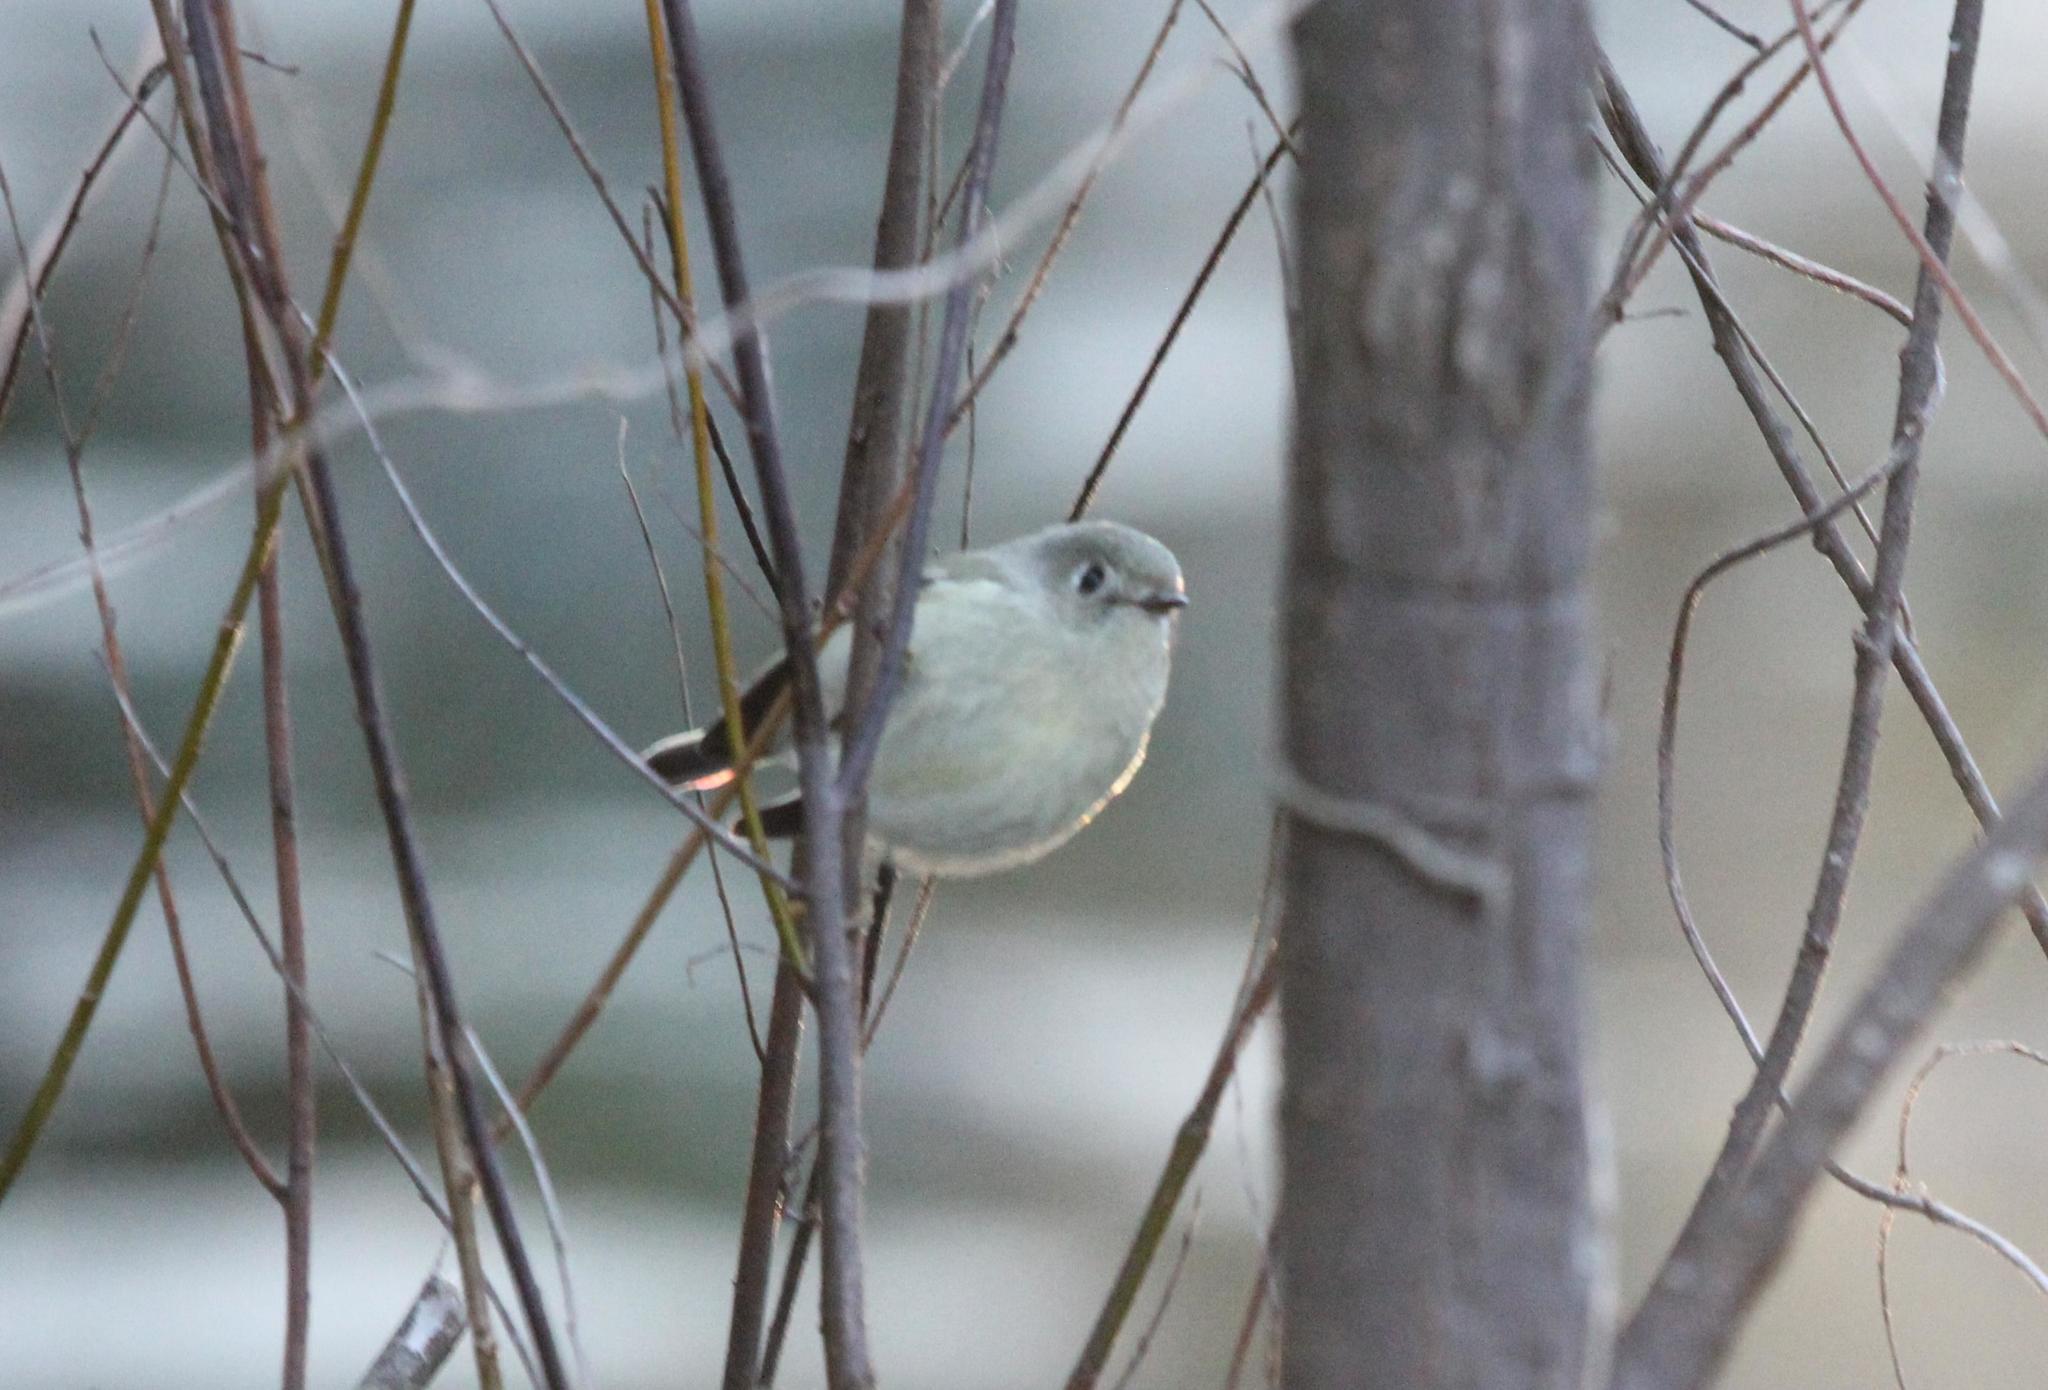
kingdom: Animalia
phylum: Chordata
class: Aves
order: Passeriformes
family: Regulidae
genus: Regulus
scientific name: Regulus calendula
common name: Ruby-crowned kinglet
